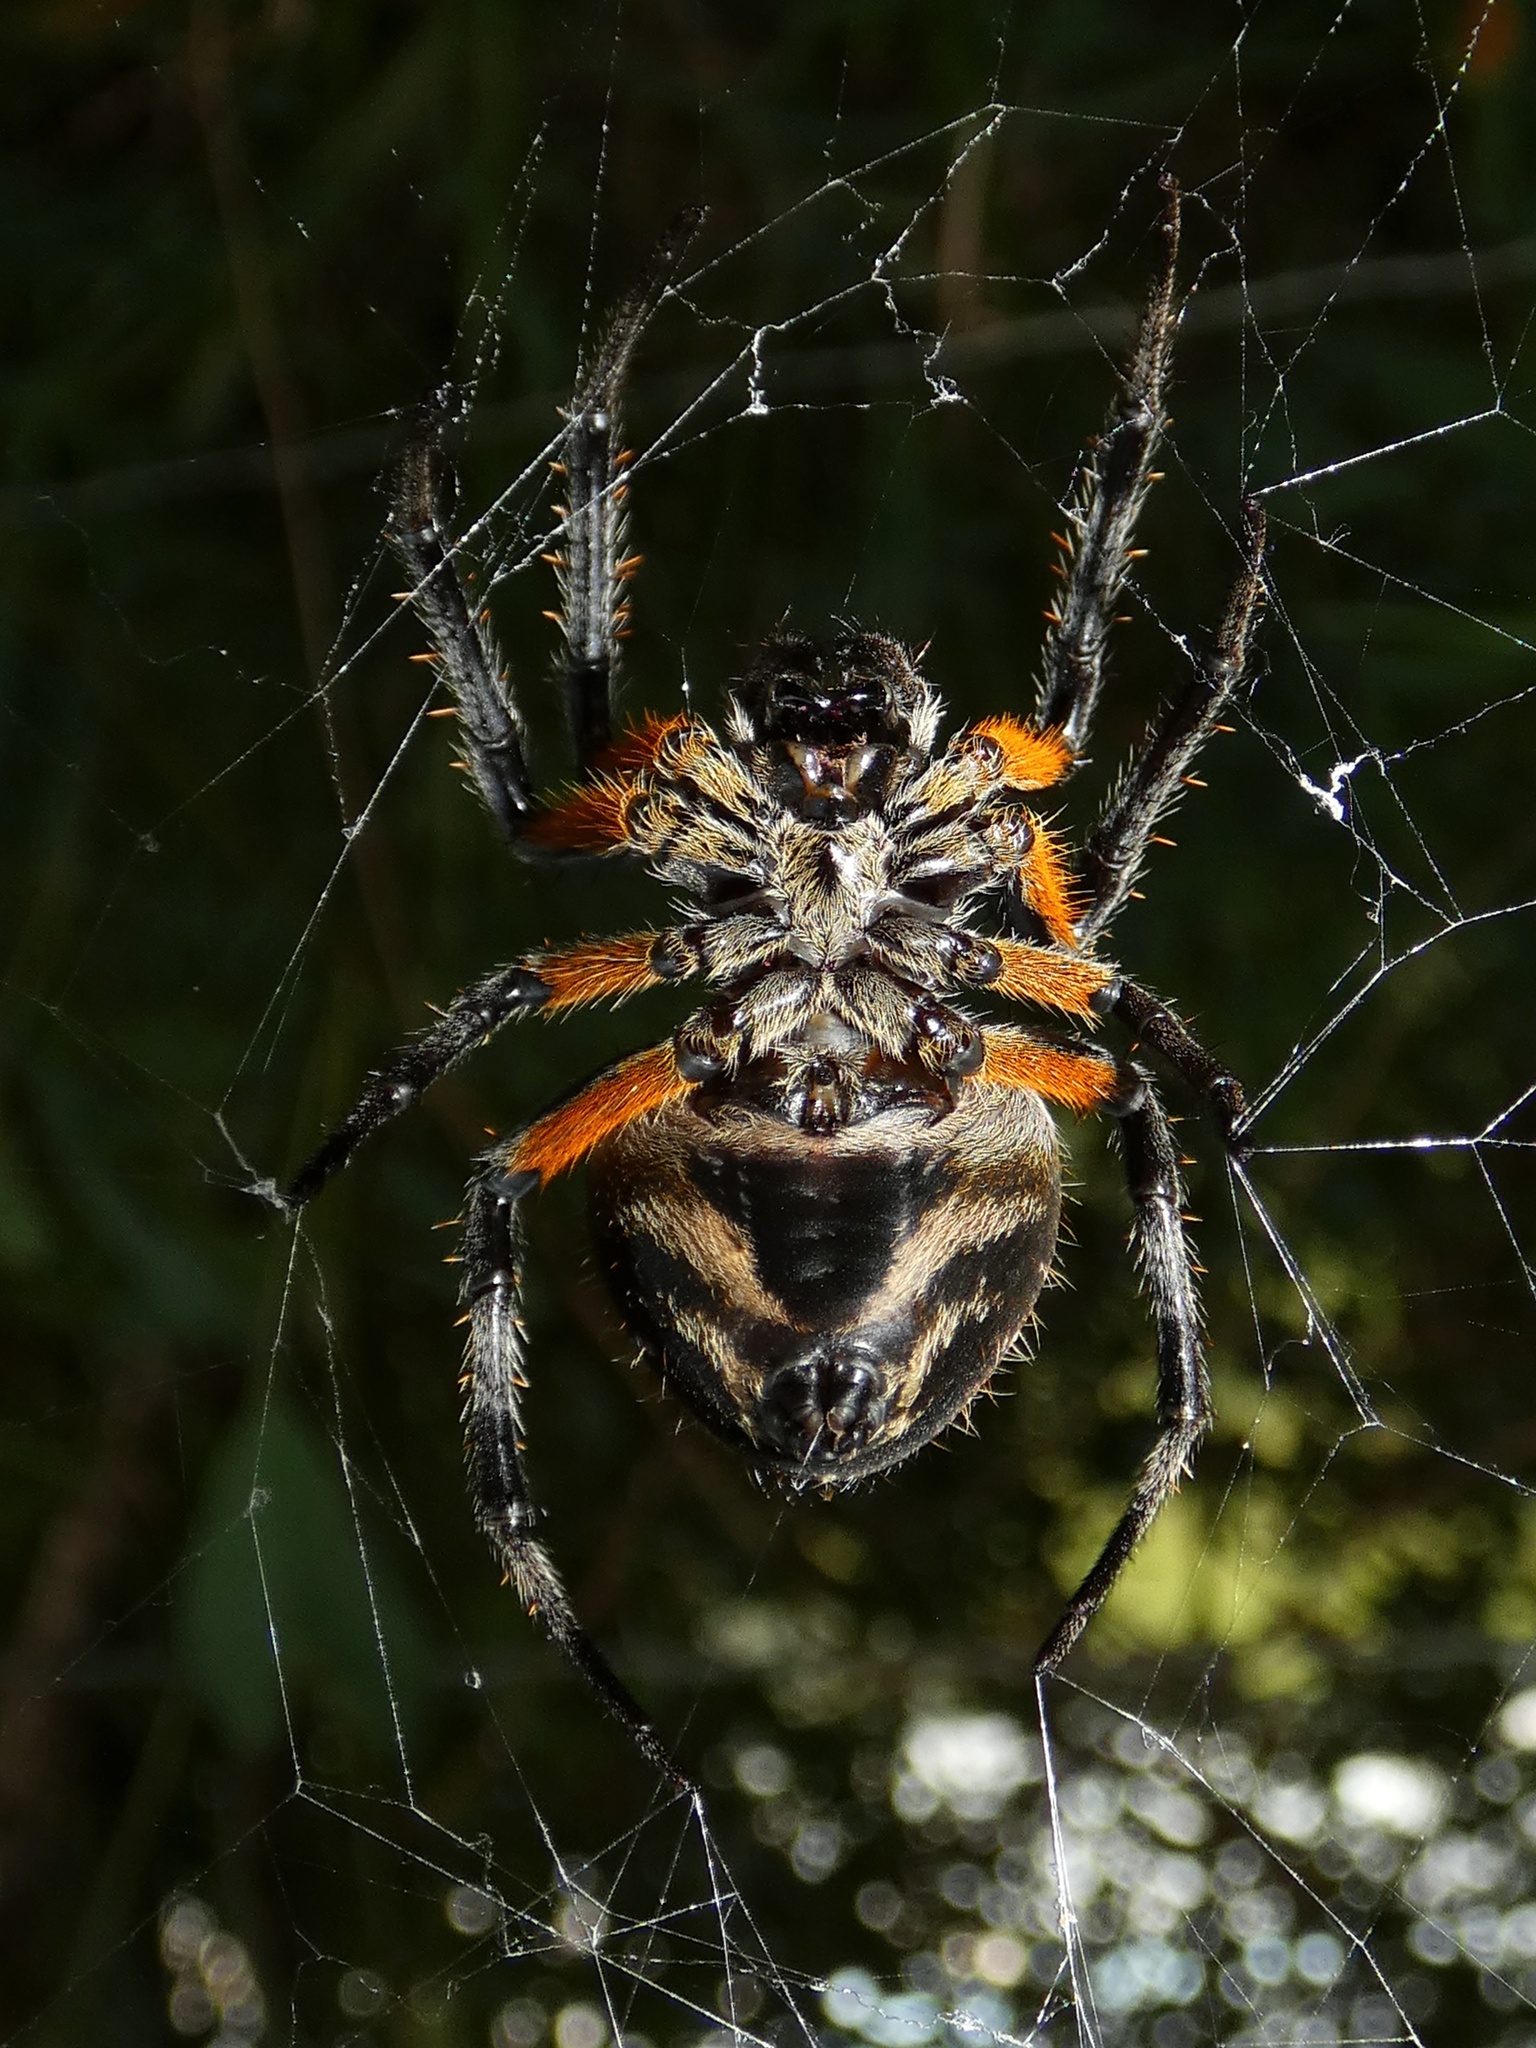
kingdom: Animalia
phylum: Arthropoda
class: Arachnida
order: Araneae
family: Araneidae
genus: Eriophora
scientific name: Eriophora fuliginea
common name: Orb weavers
